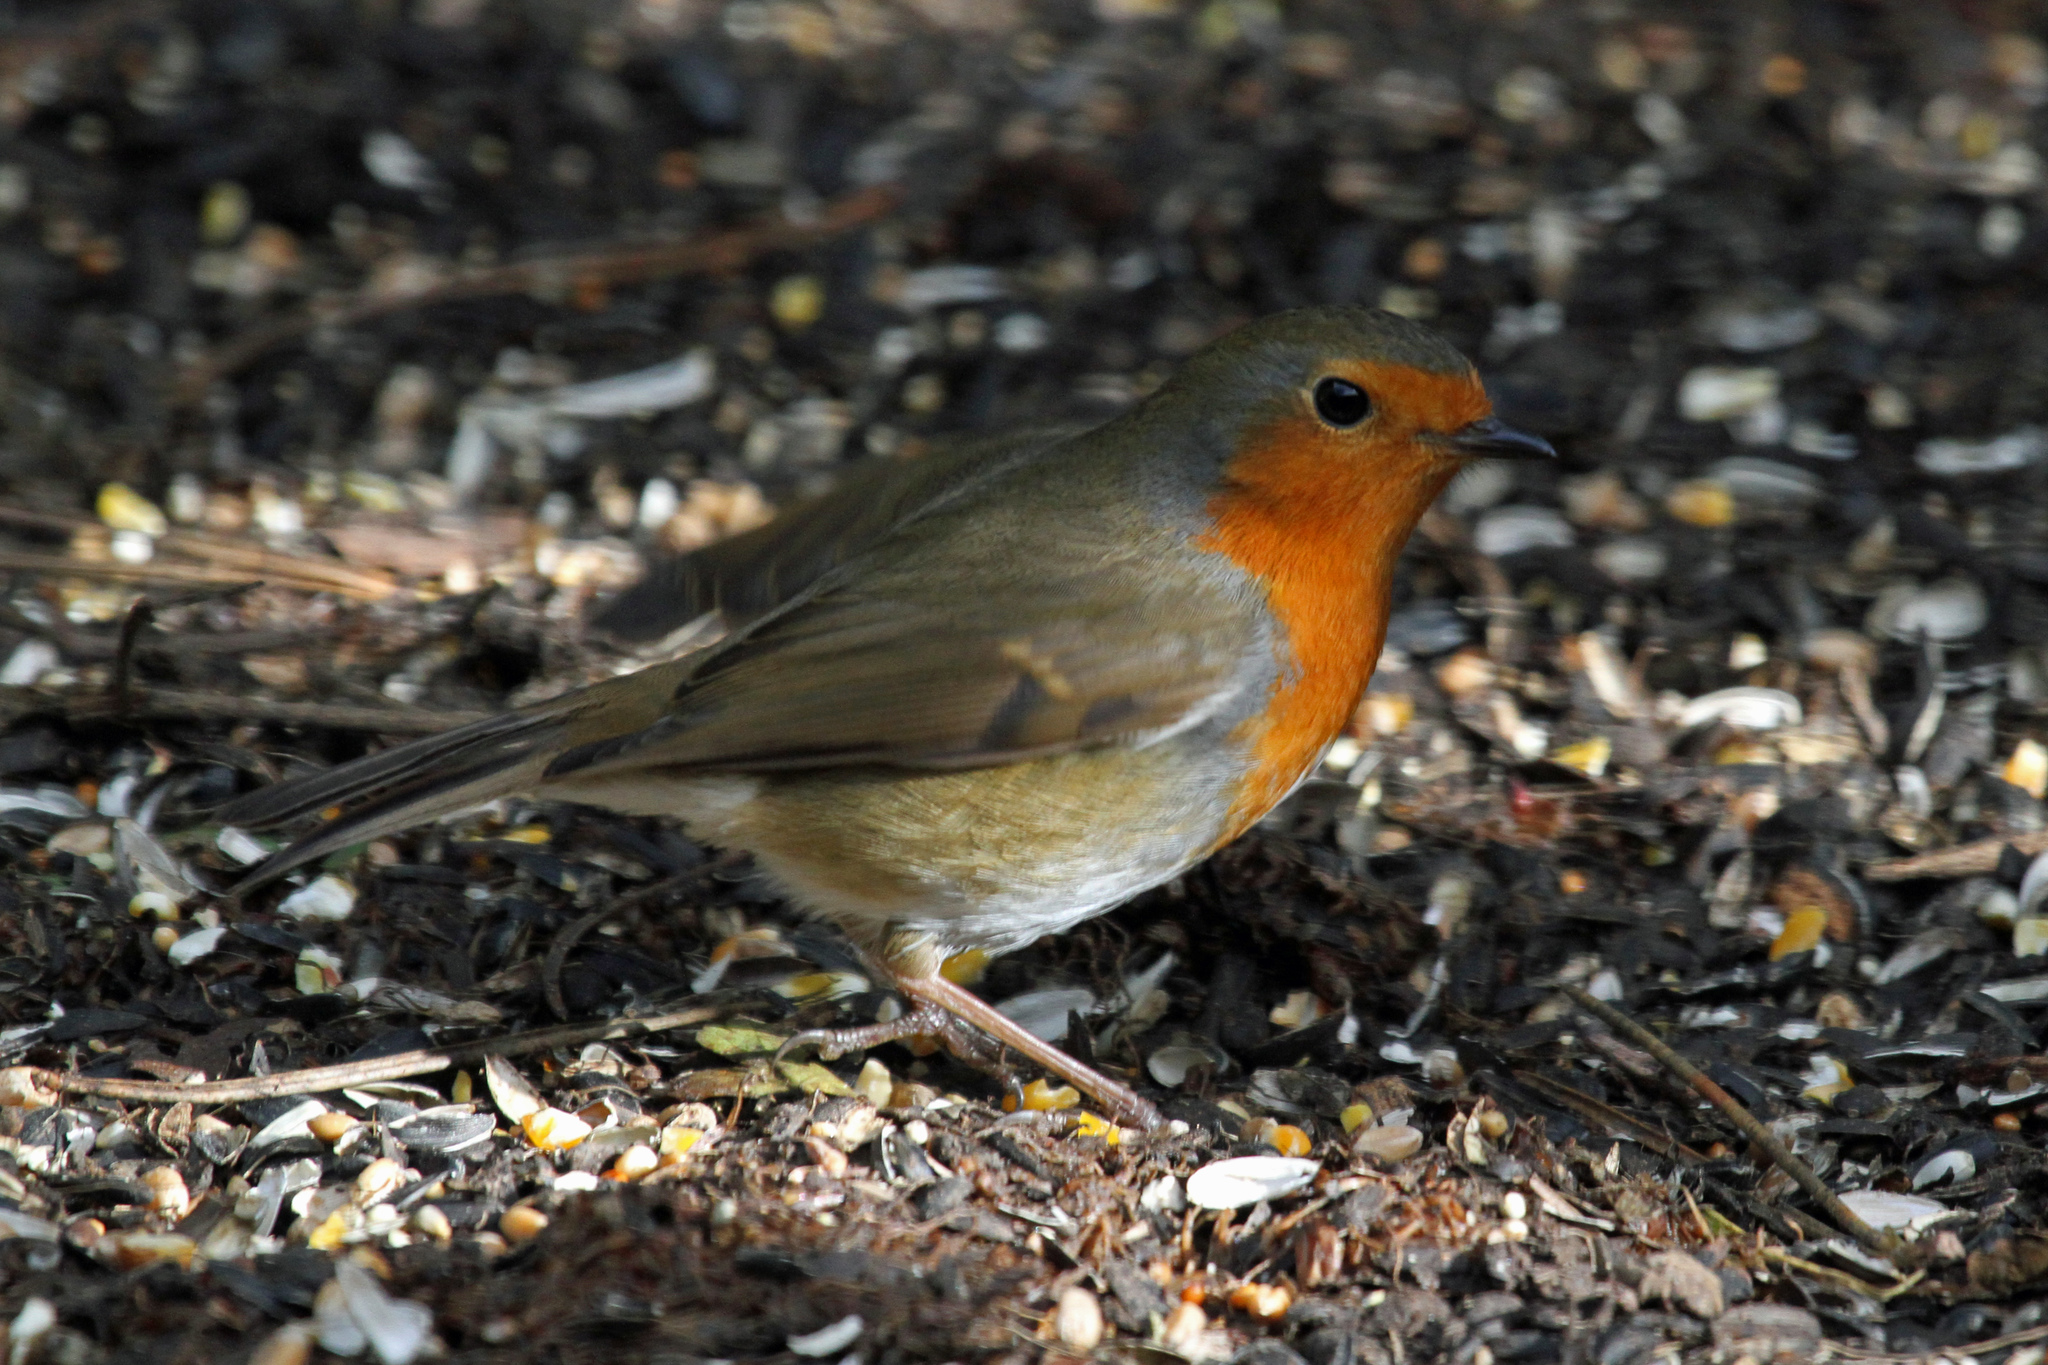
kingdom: Animalia
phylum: Chordata
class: Aves
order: Passeriformes
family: Muscicapidae
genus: Erithacus
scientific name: Erithacus rubecula
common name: European robin
